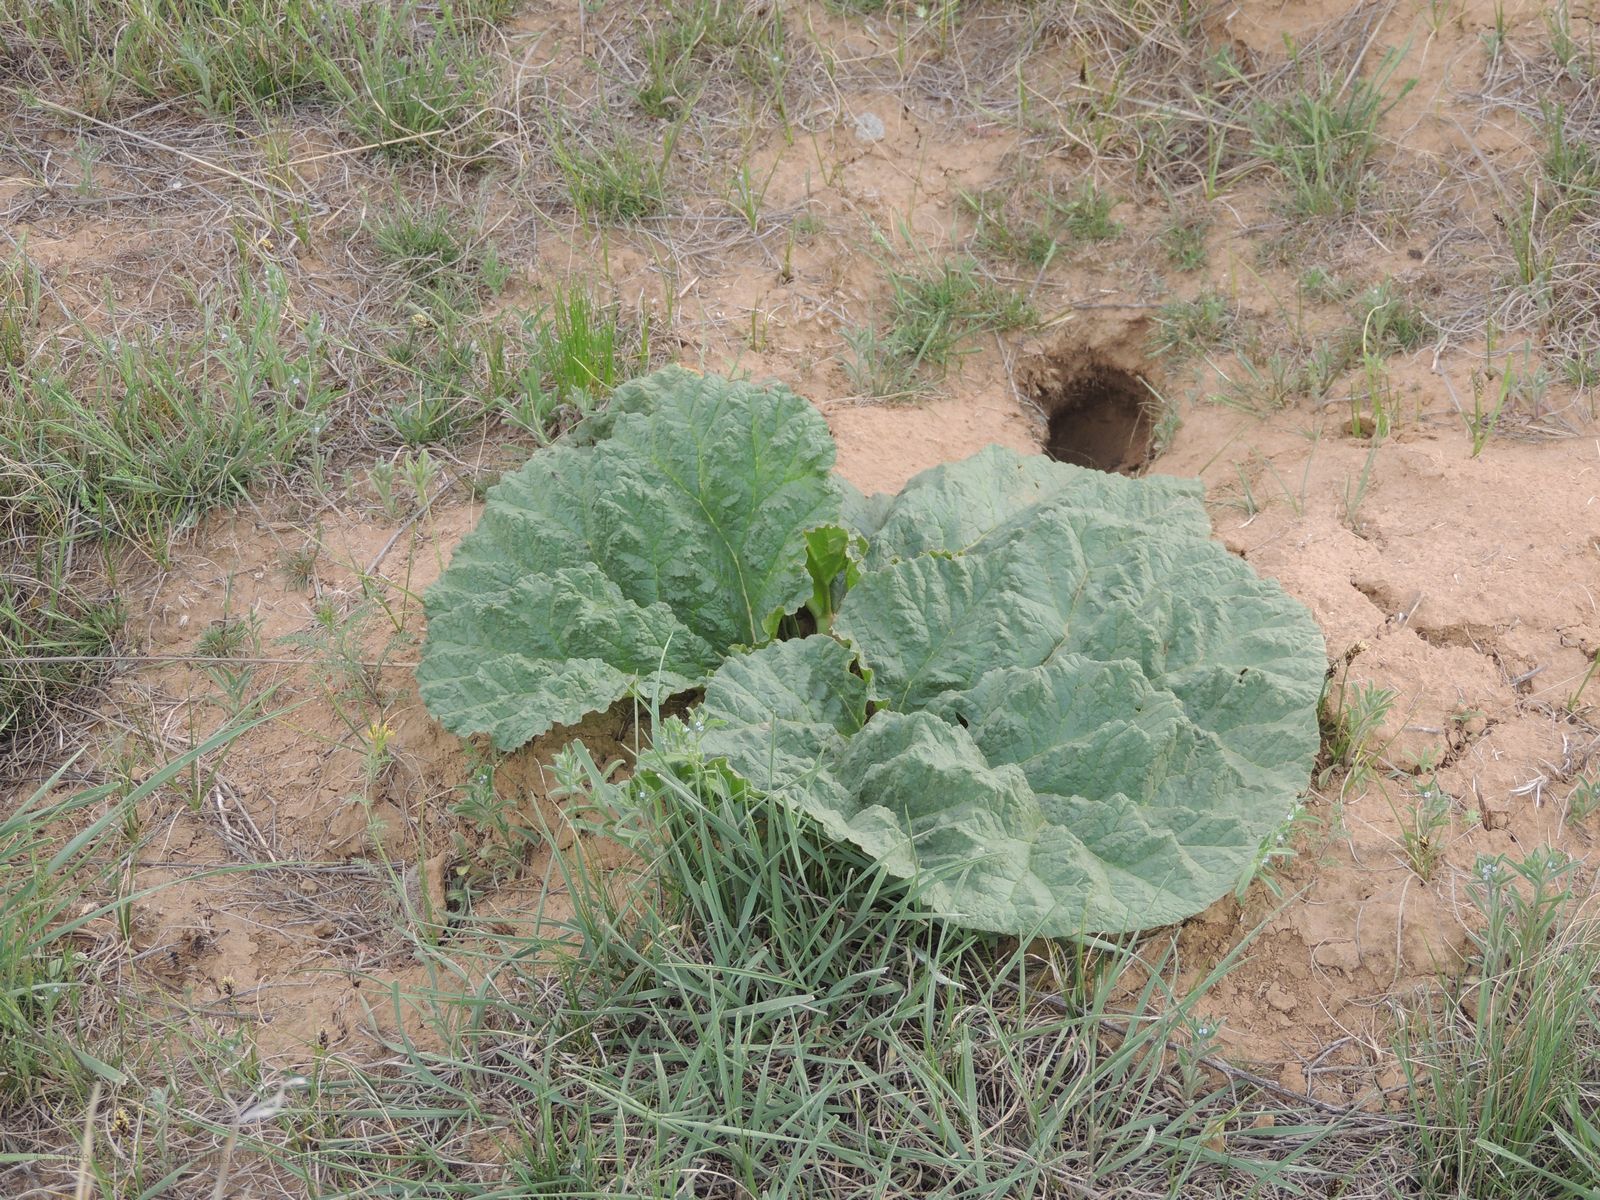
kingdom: Plantae
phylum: Tracheophyta
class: Magnoliopsida
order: Caryophyllales
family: Polygonaceae
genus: Rheum
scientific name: Rheum tataricum
